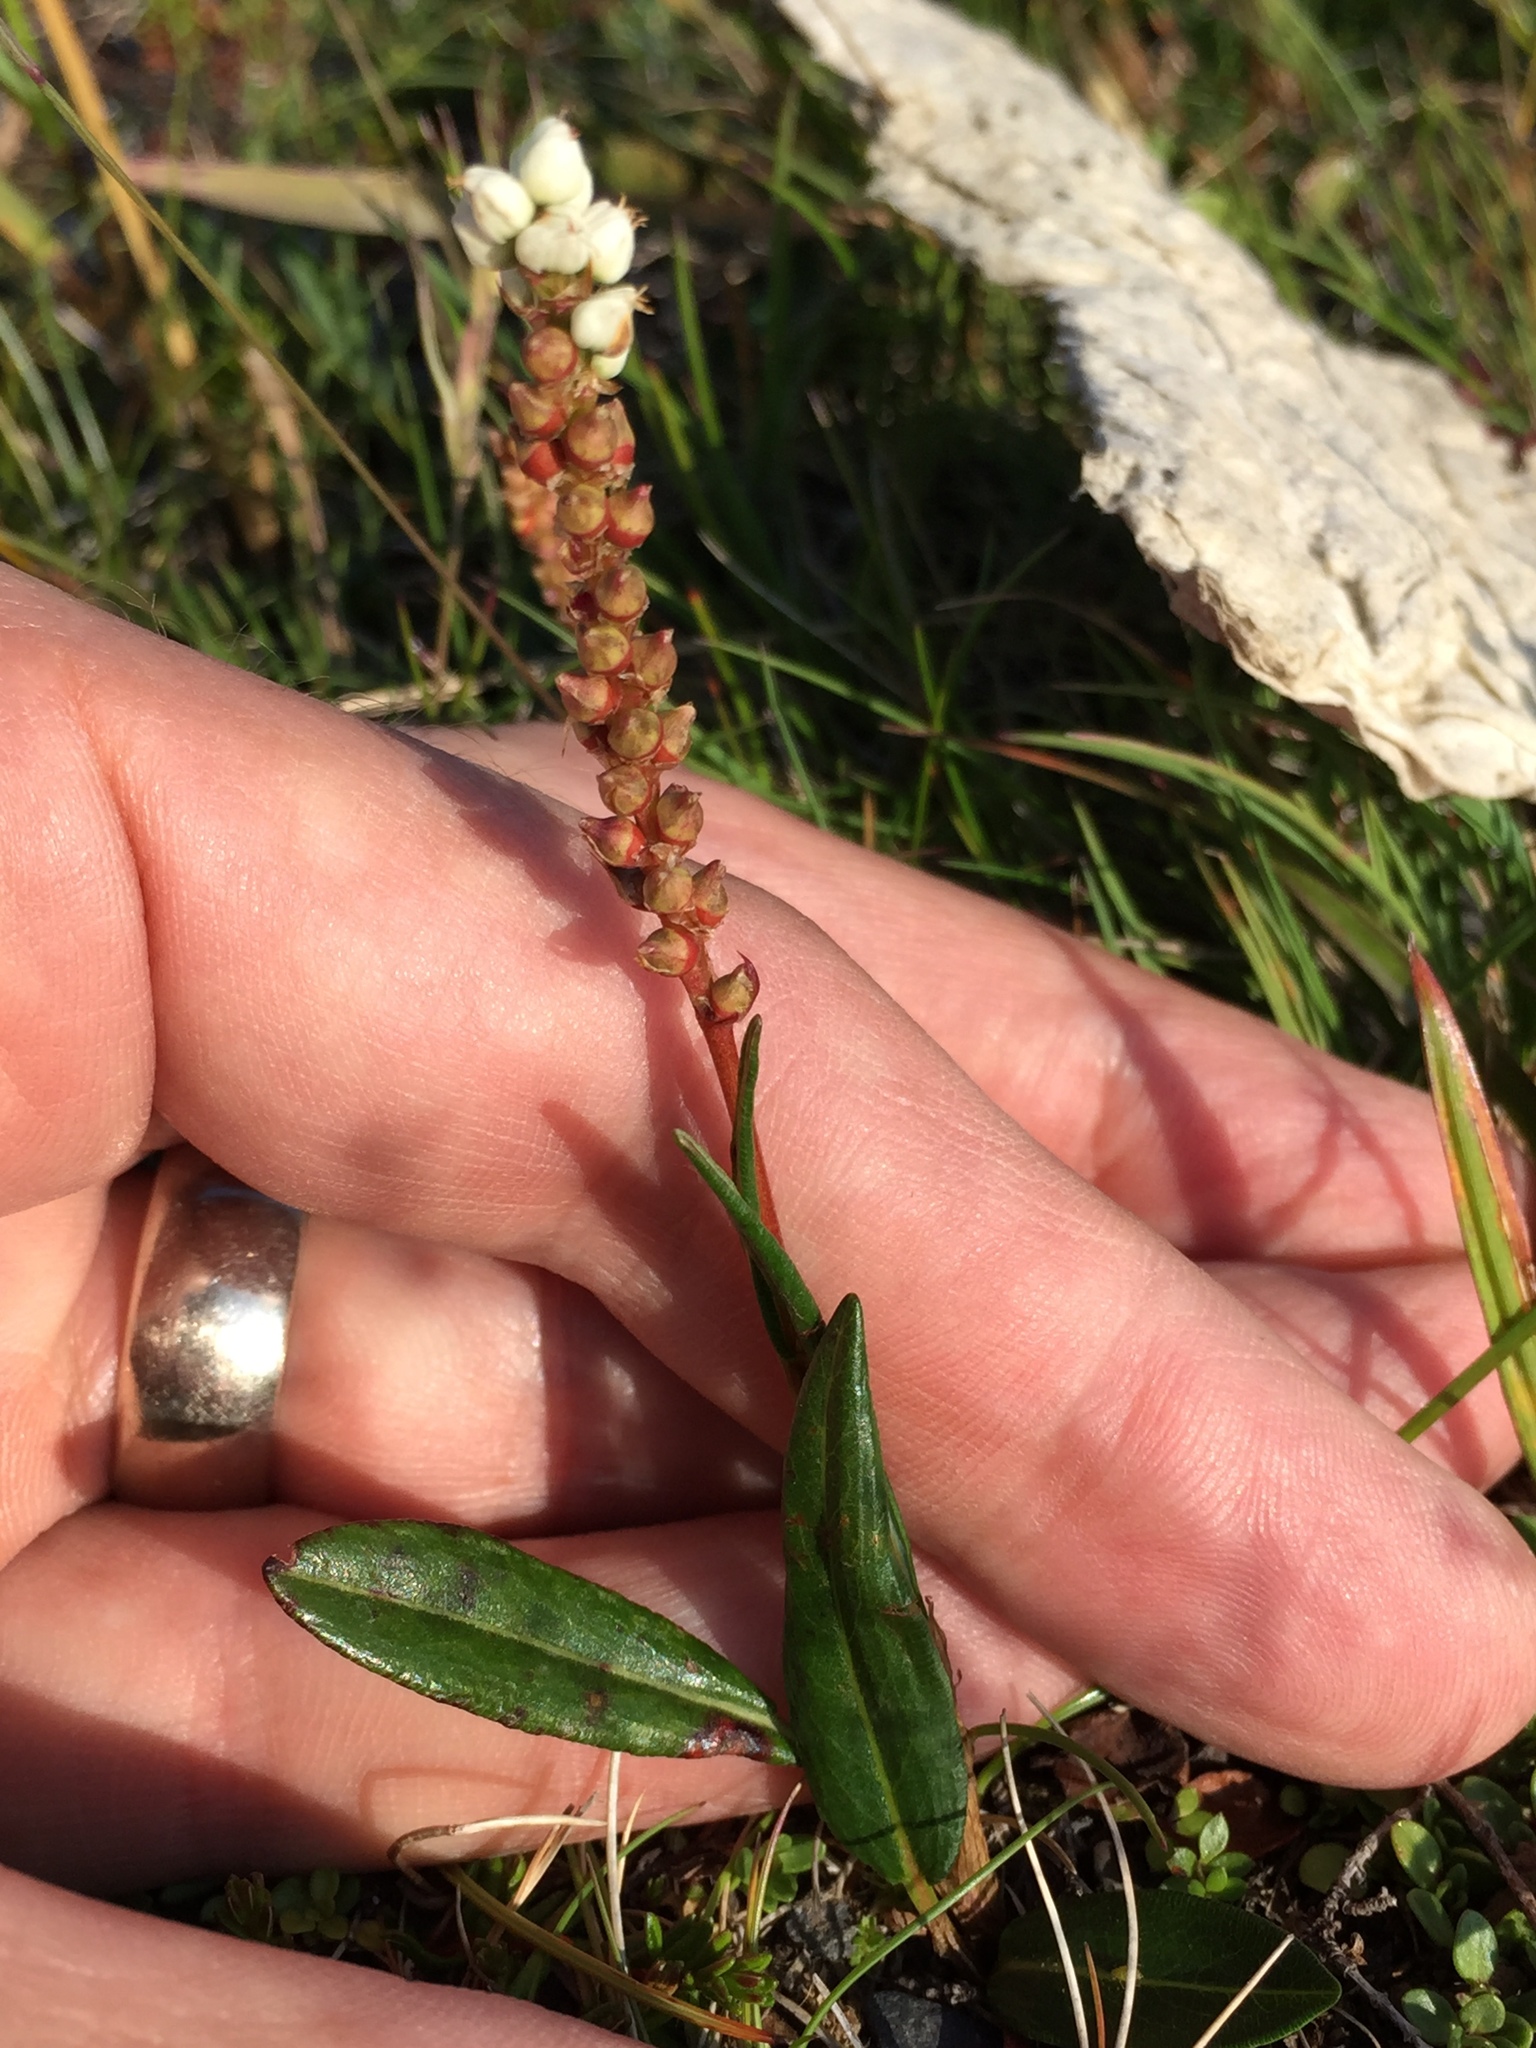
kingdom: Plantae
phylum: Tracheophyta
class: Magnoliopsida
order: Caryophyllales
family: Polygonaceae
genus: Bistorta
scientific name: Bistorta vivipara
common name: Alpine bistort
